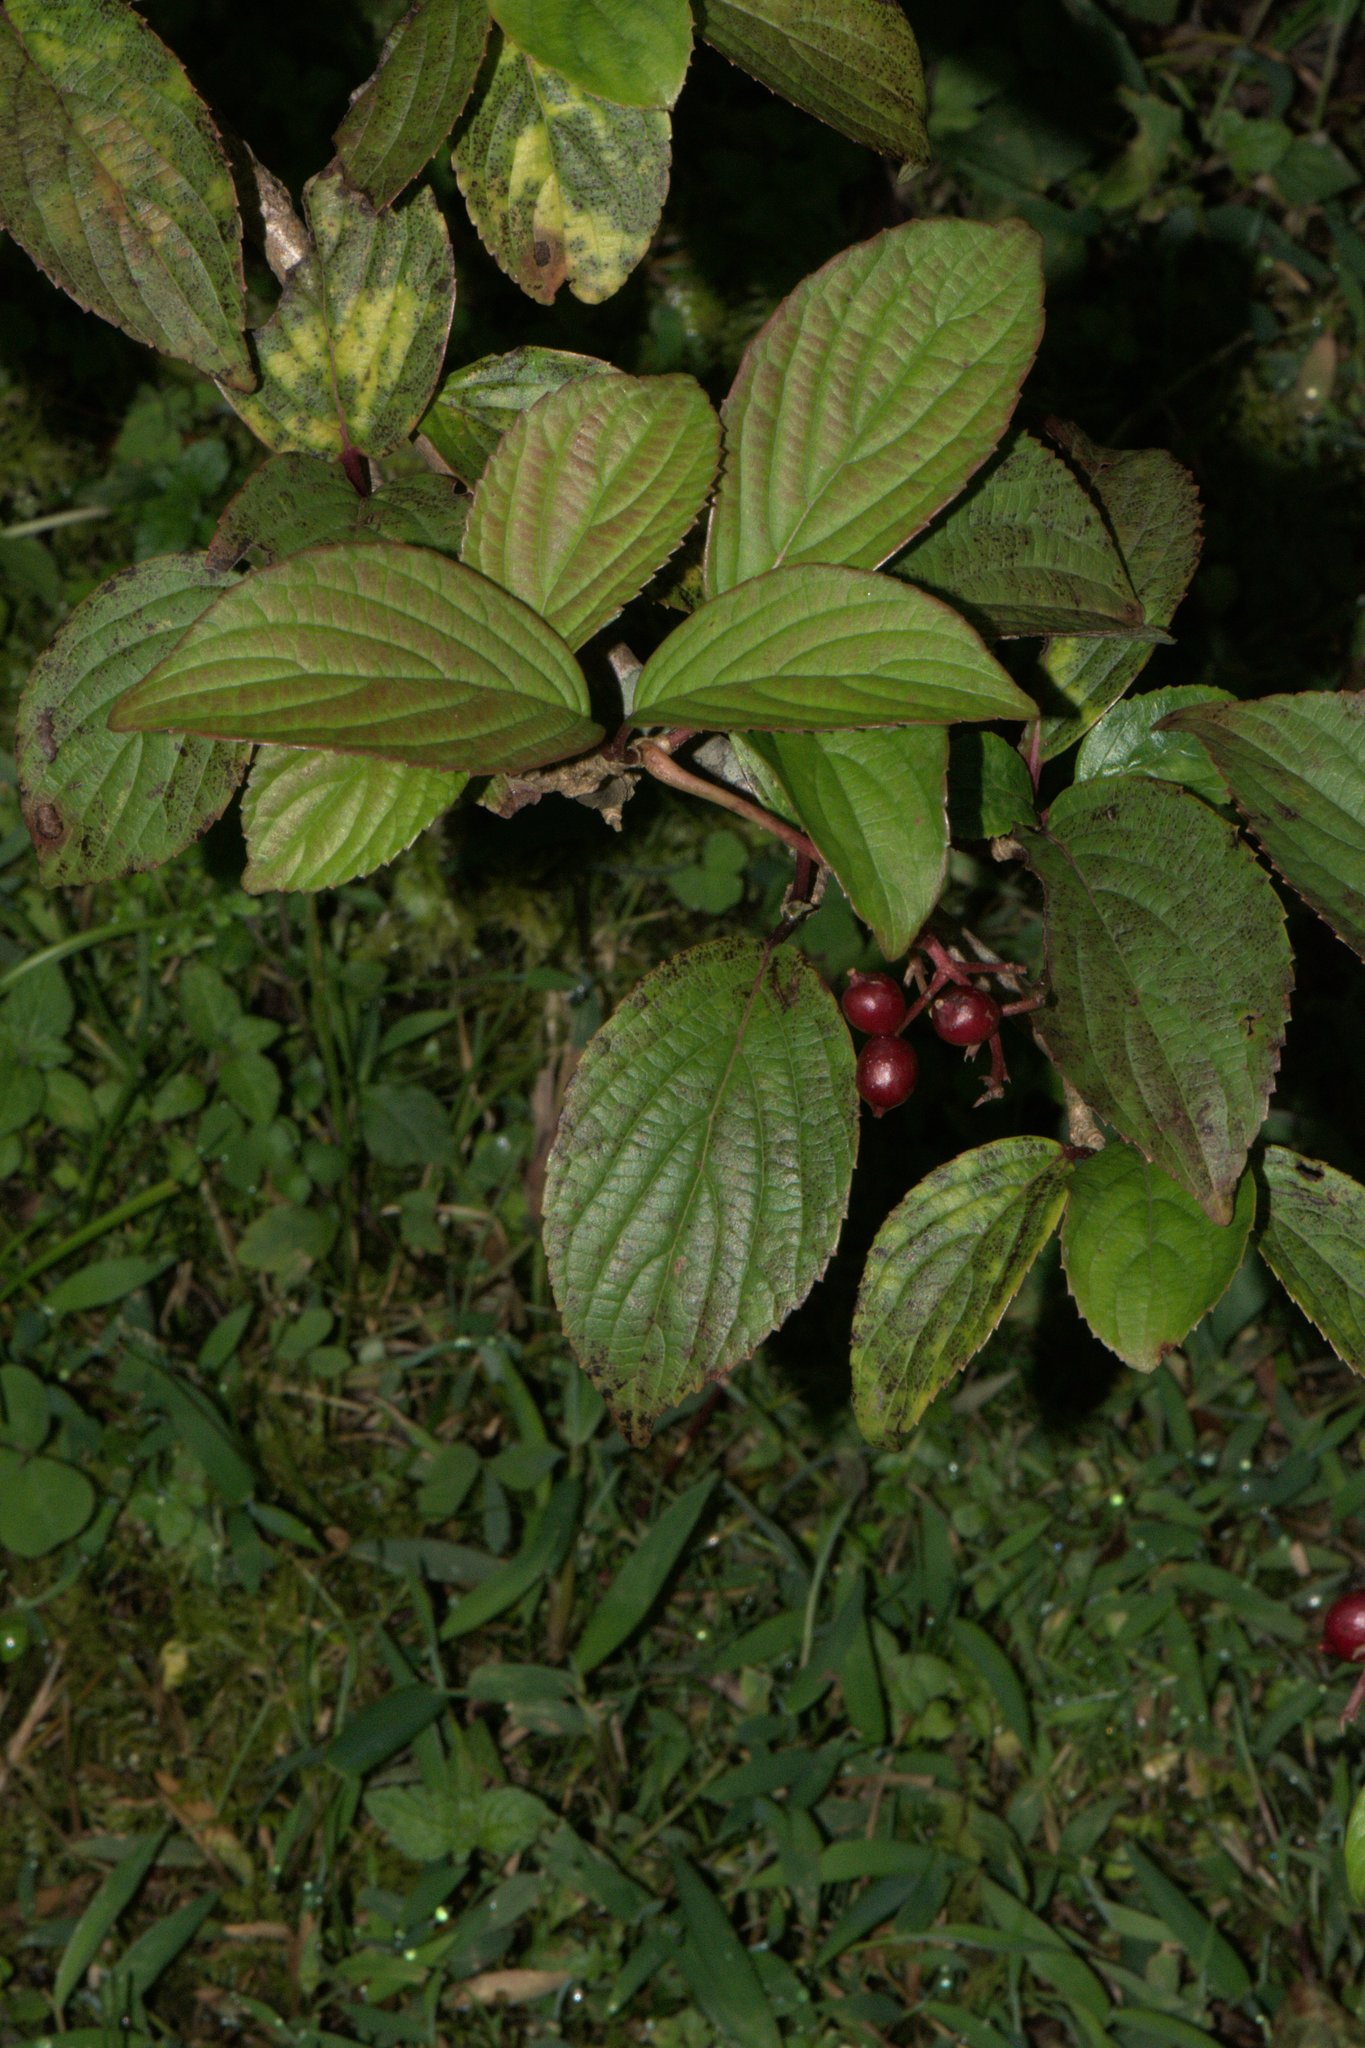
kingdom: Plantae
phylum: Tracheophyta
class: Magnoliopsida
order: Dipsacales
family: Viburnaceae
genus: Viburnum
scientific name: Viburnum erubescens
